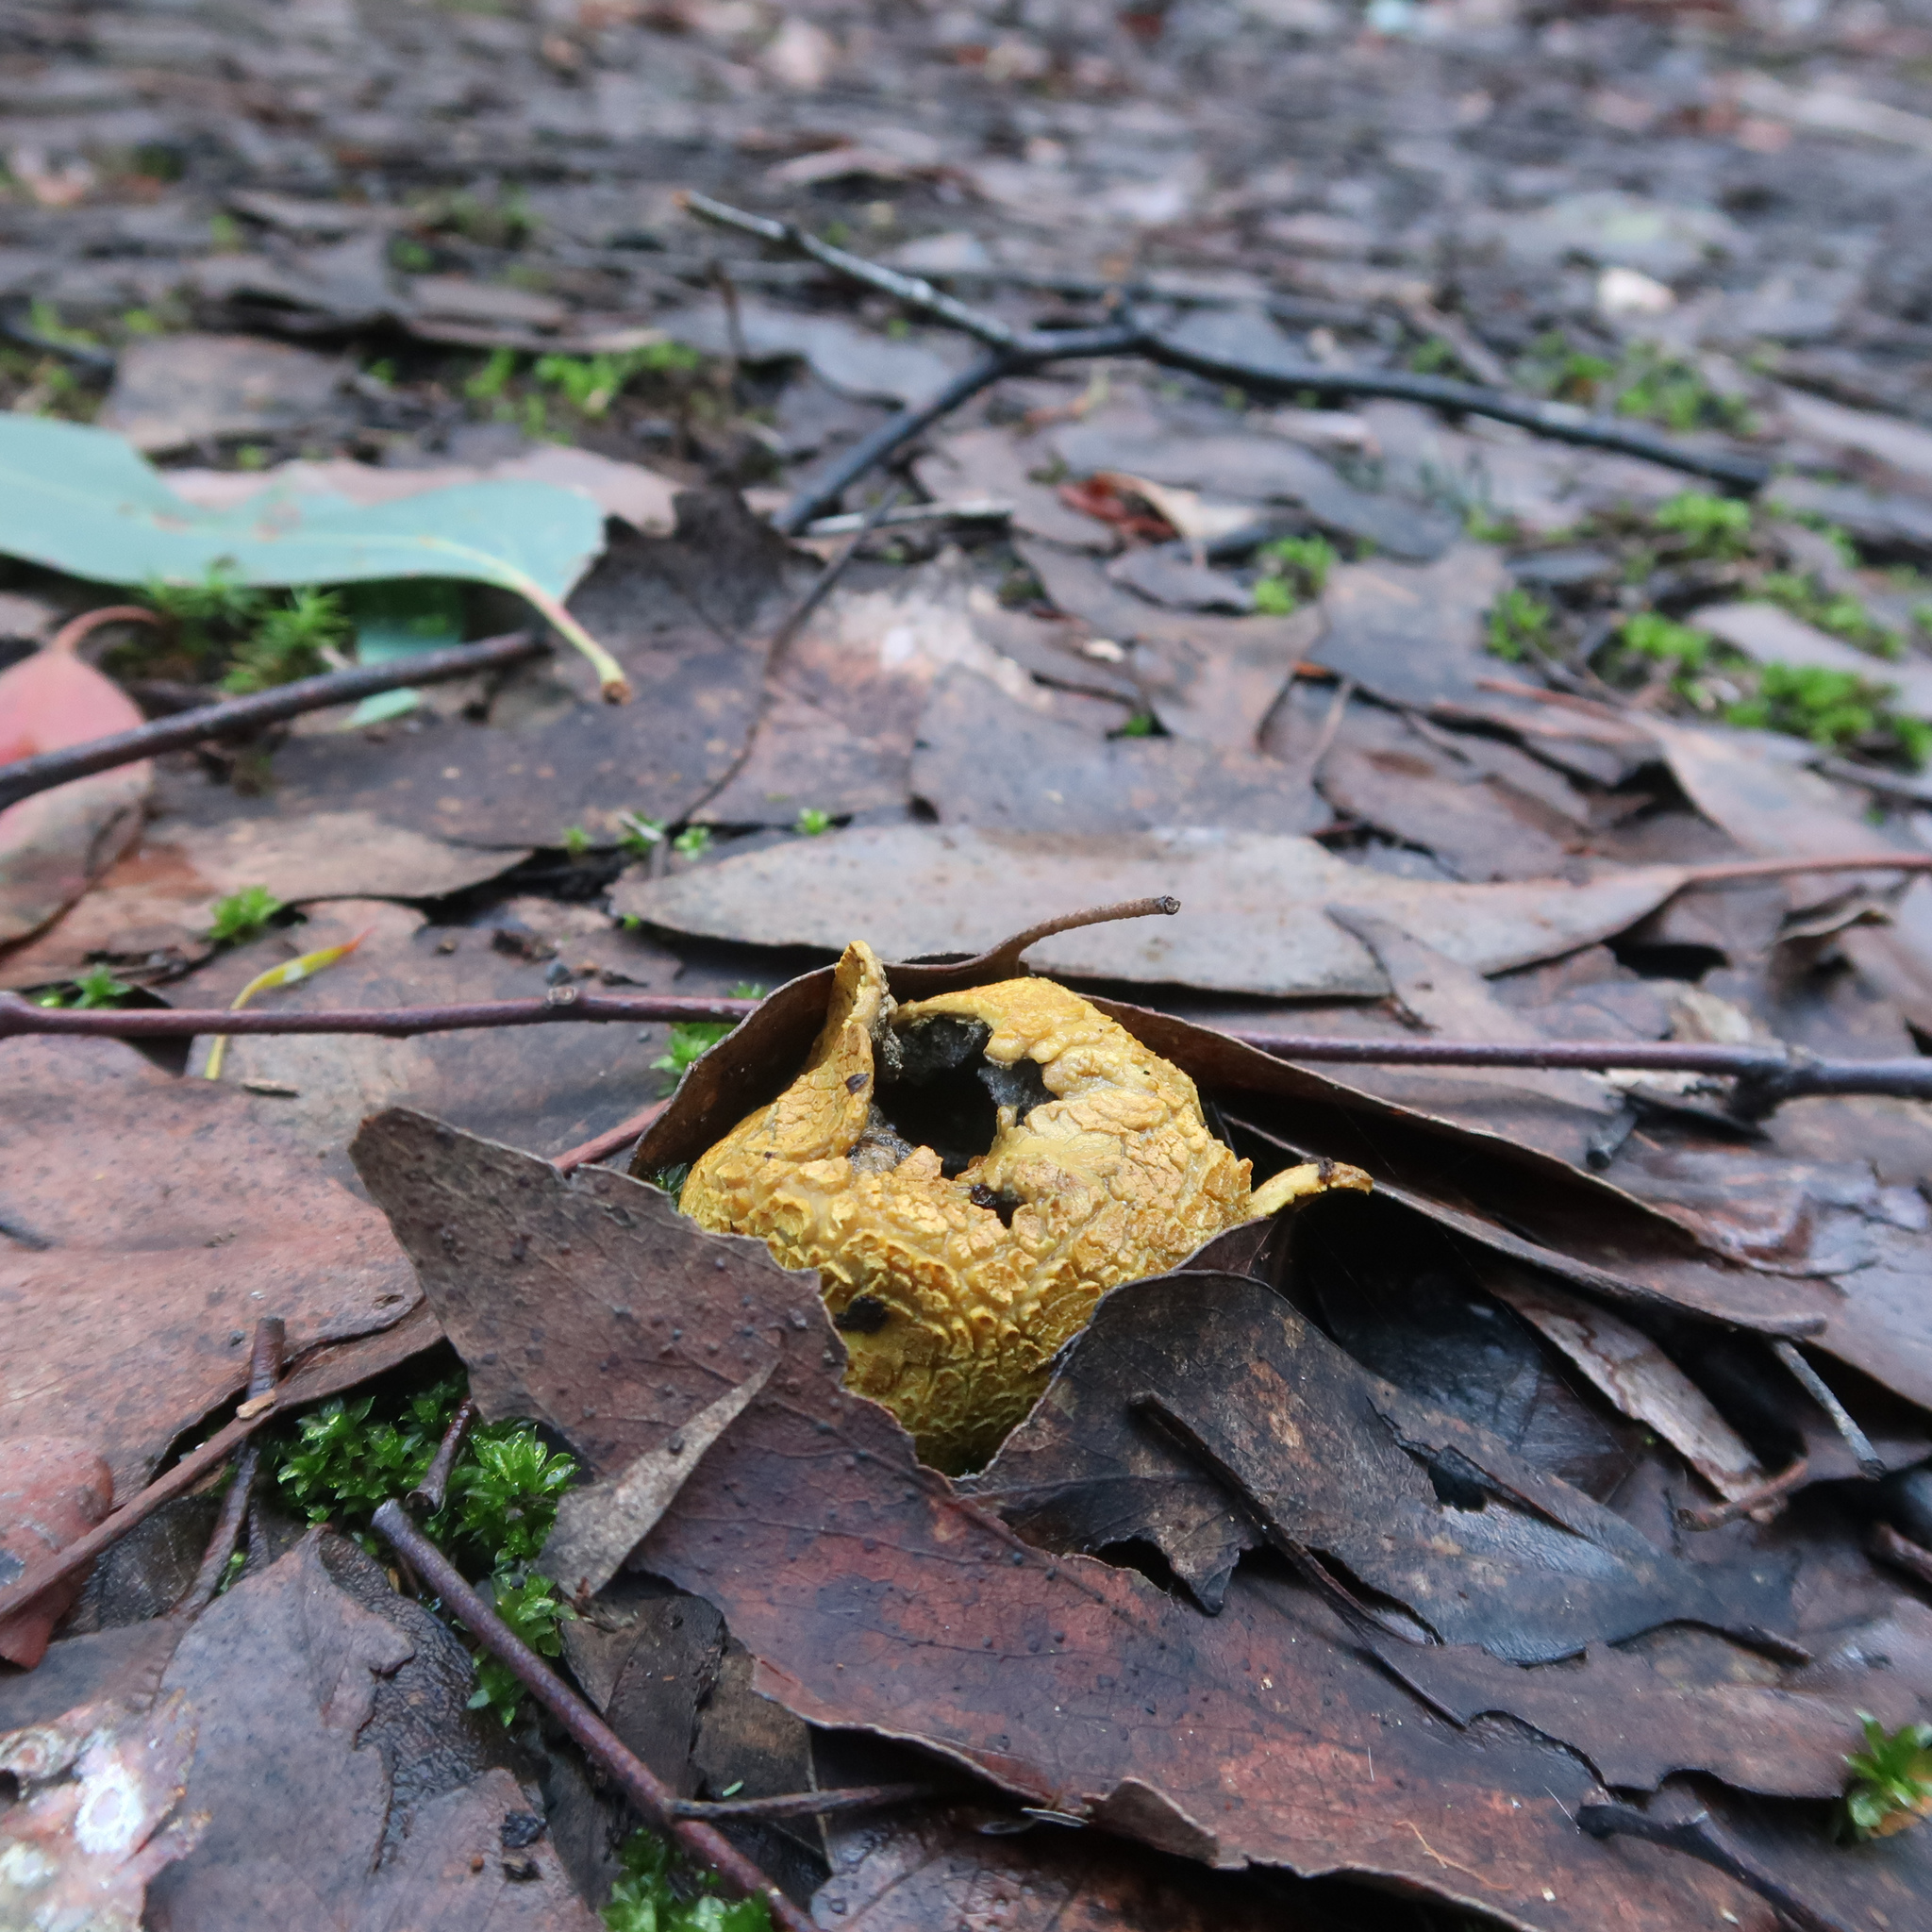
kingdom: Fungi
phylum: Basidiomycota
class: Agaricomycetes
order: Boletales
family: Sclerodermataceae
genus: Scleroderma
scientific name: Scleroderma cepa
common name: Onion earthball
